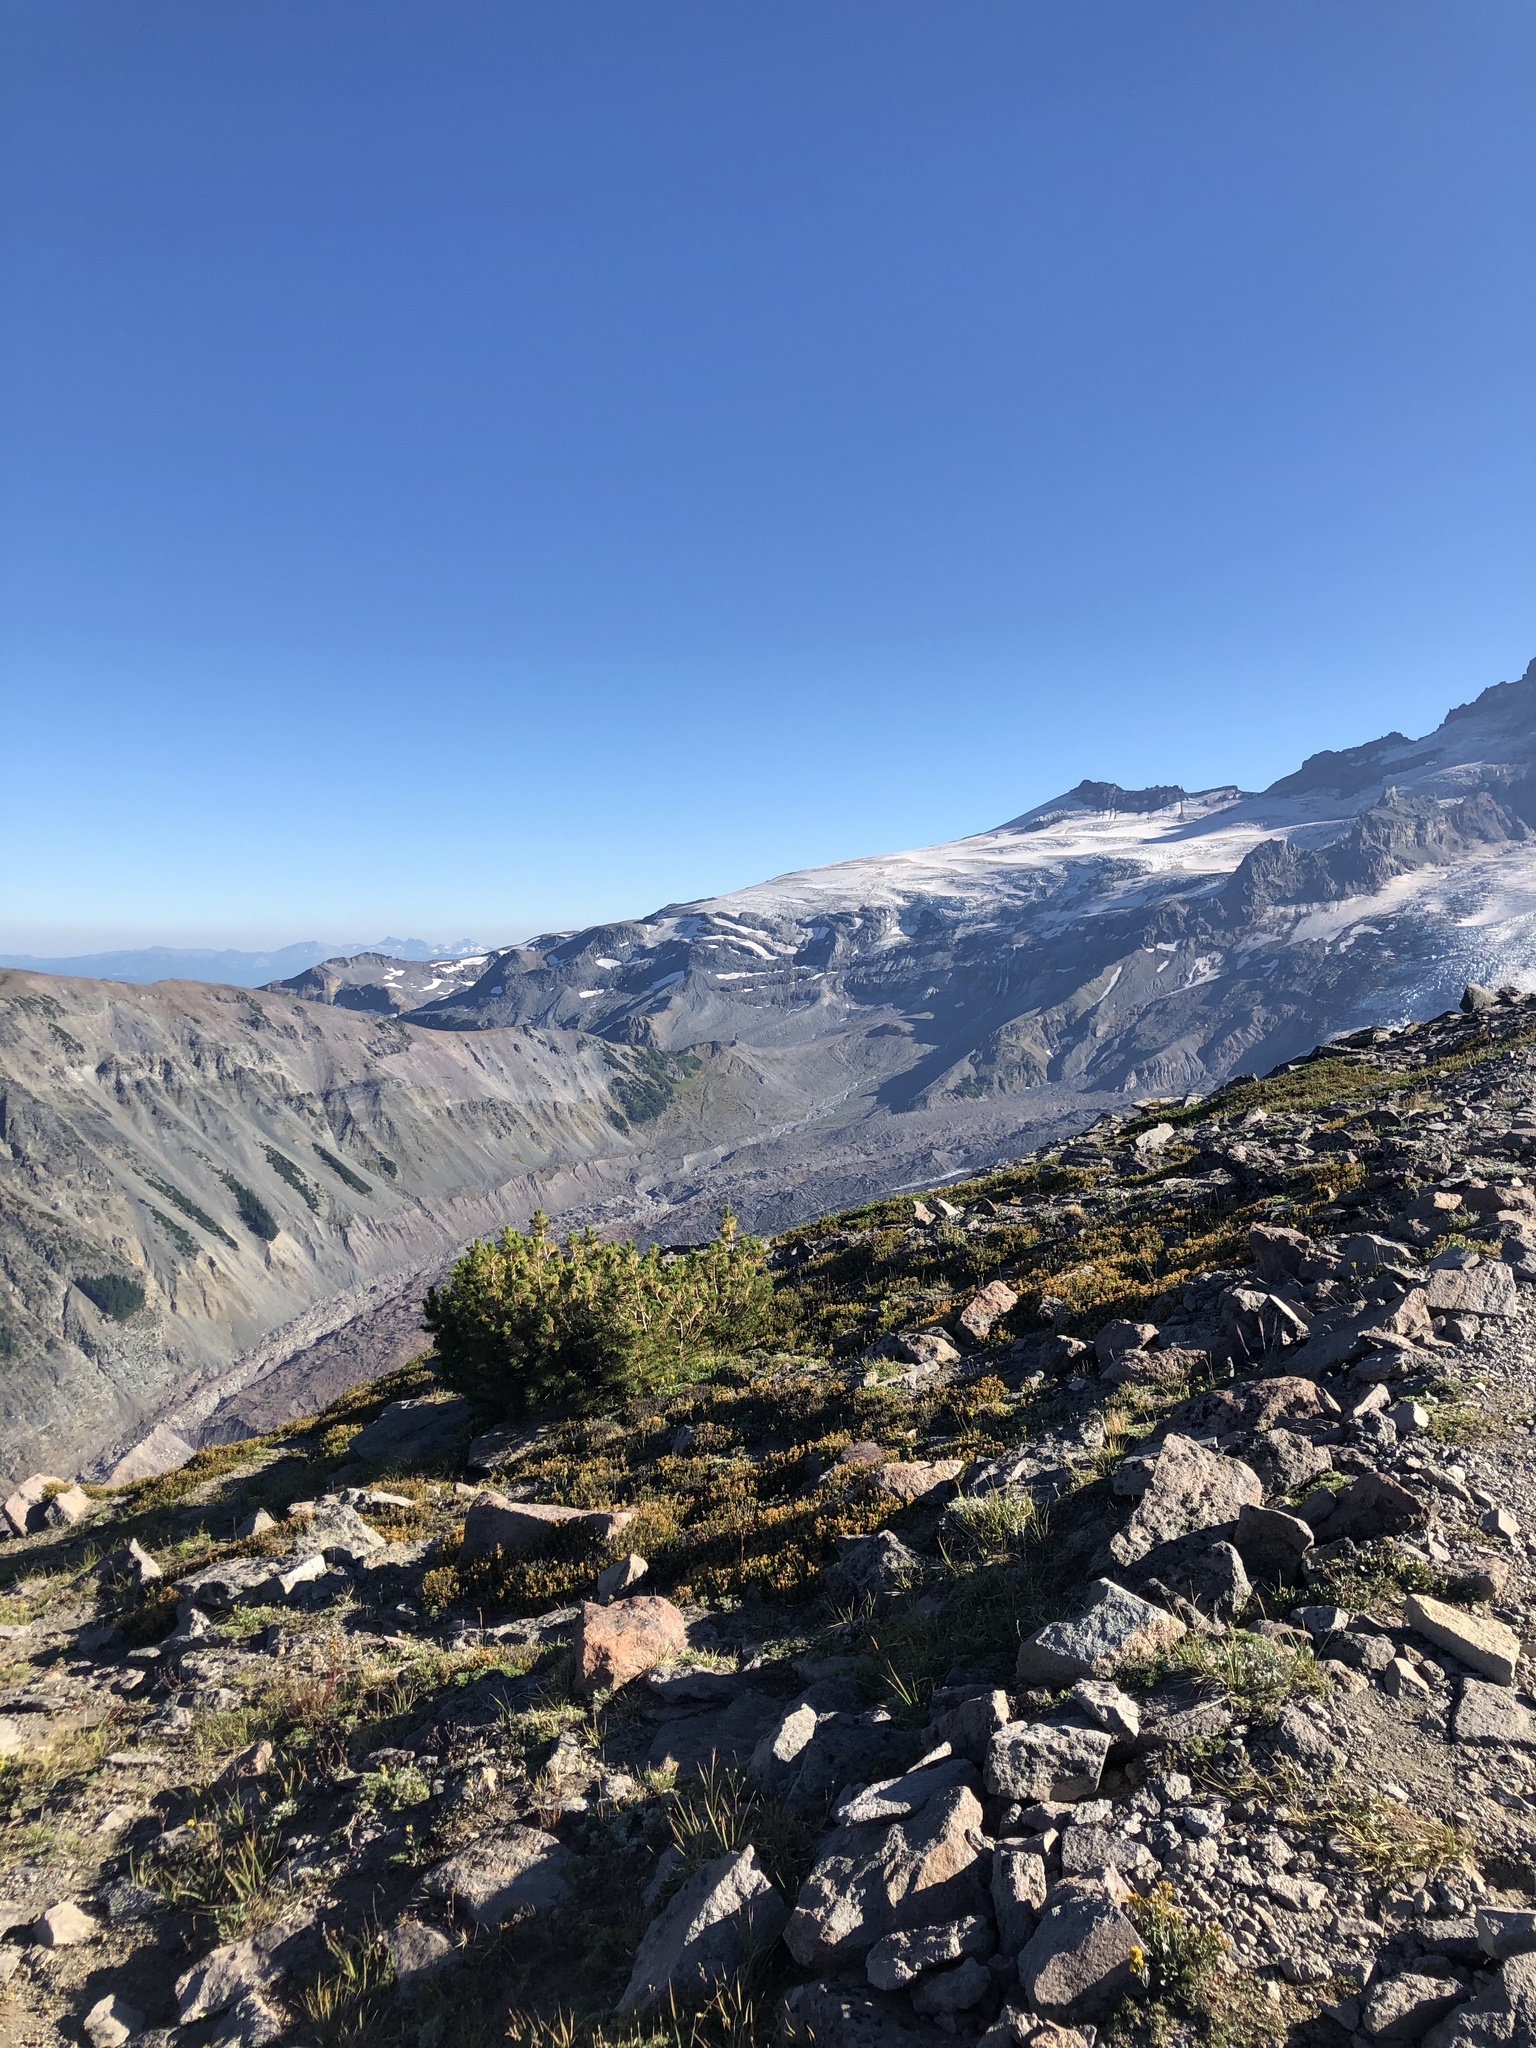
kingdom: Plantae
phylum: Tracheophyta
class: Pinopsida
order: Pinales
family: Pinaceae
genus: Pinus
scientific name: Pinus albicaulis
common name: Whitebark pine
